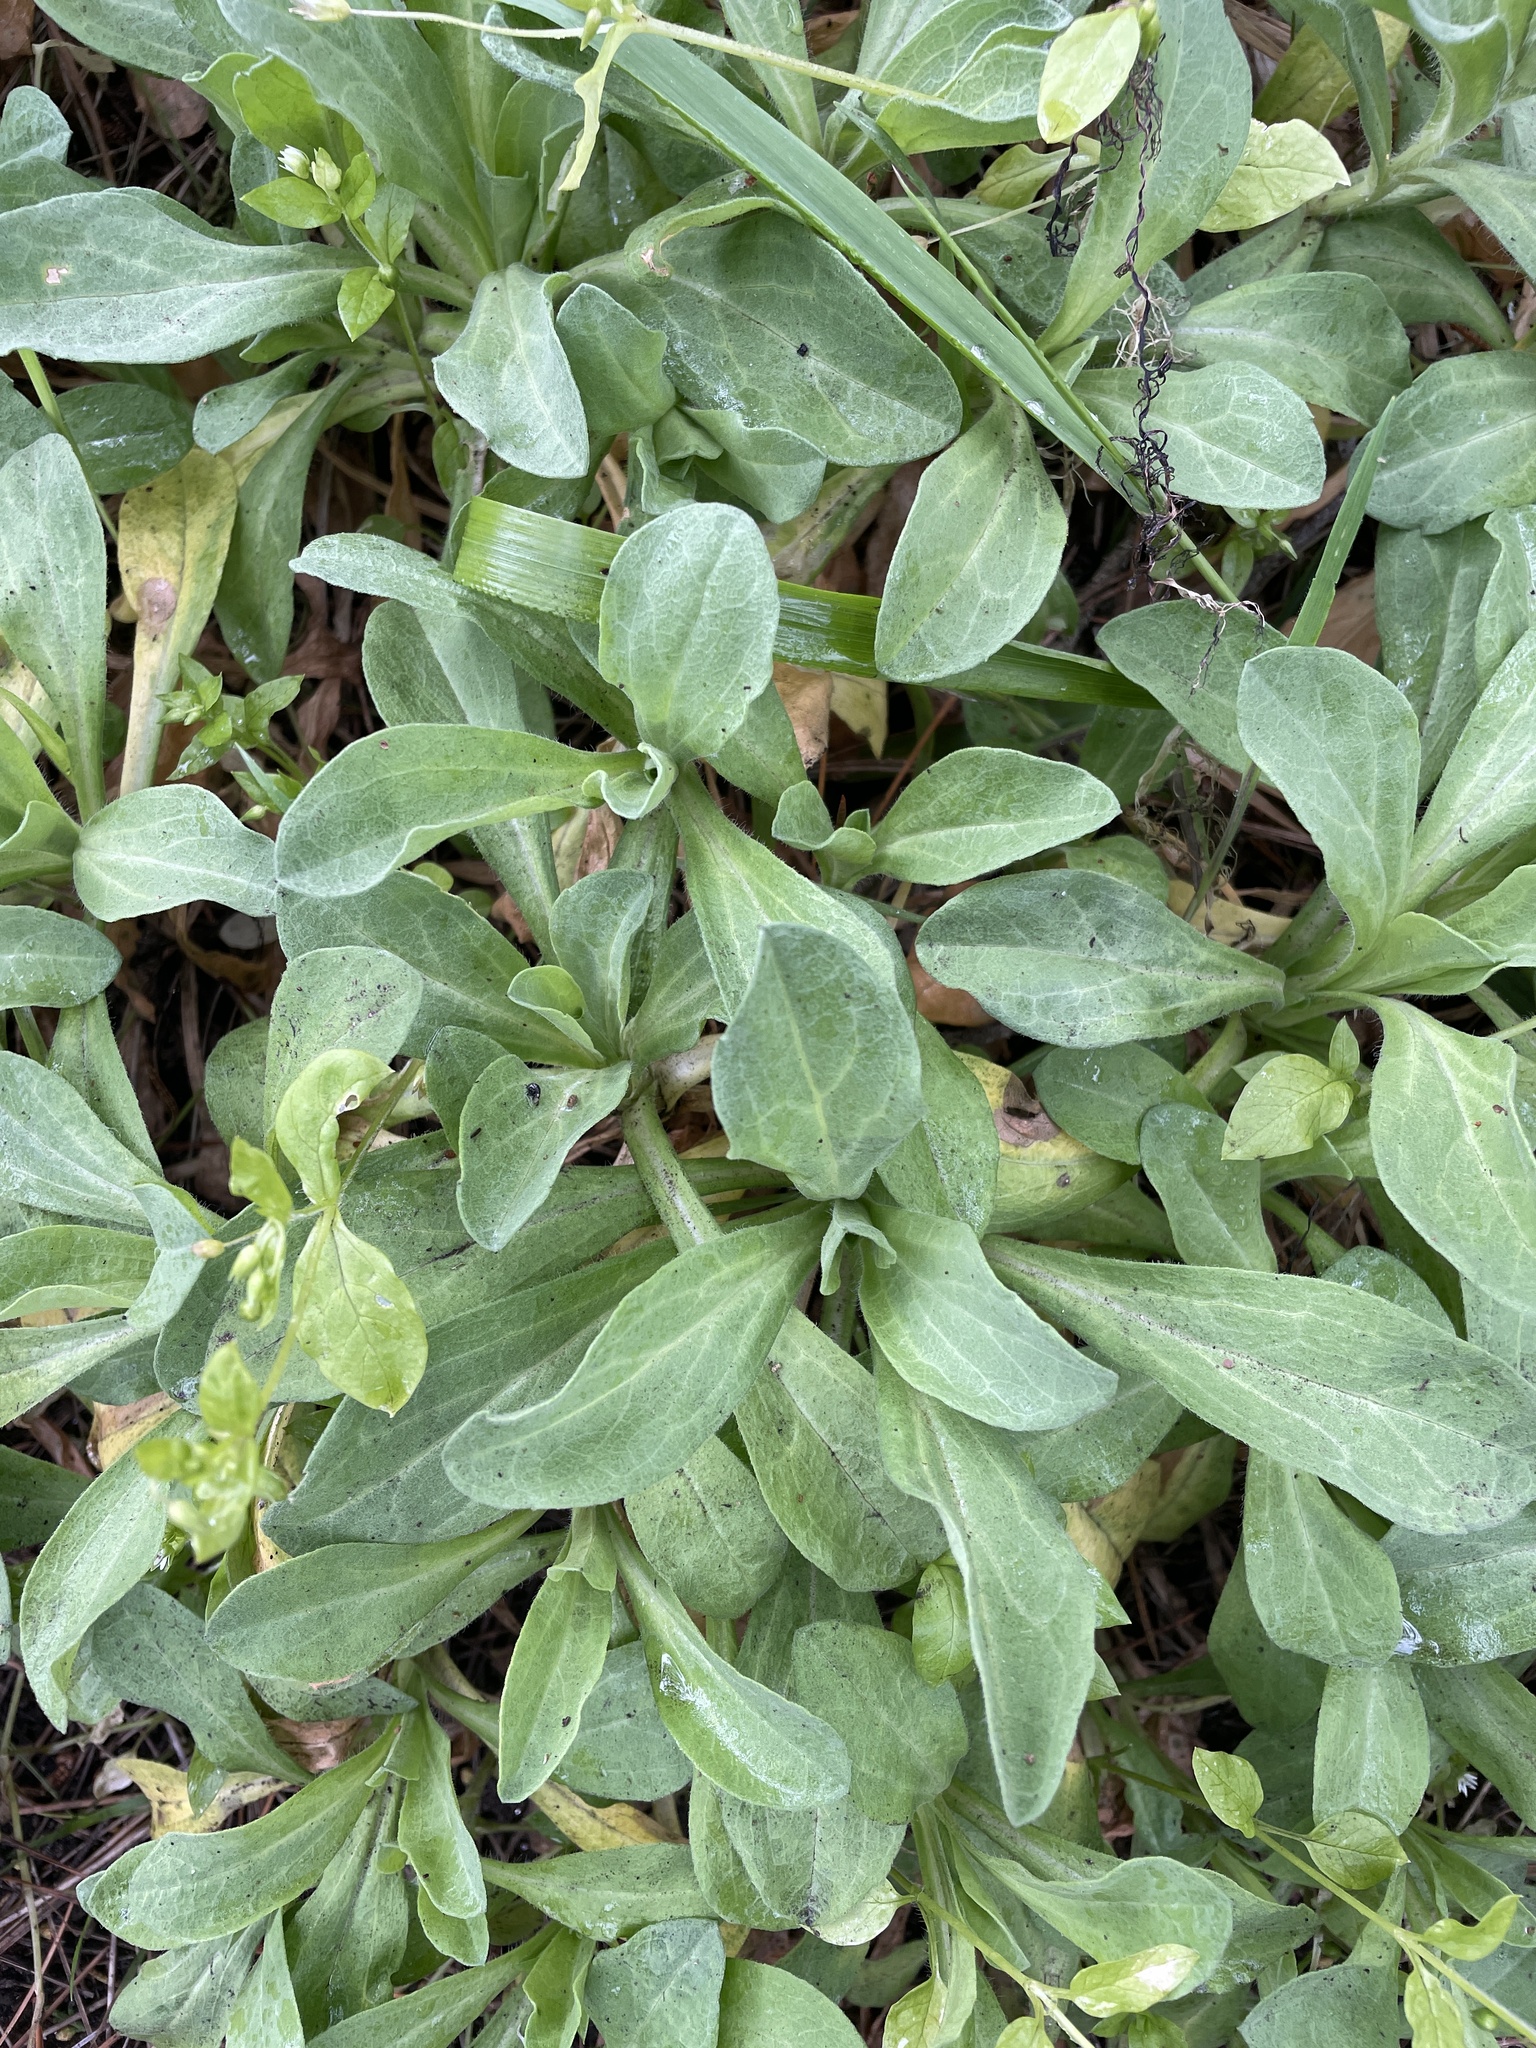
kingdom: Plantae
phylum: Tracheophyta
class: Magnoliopsida
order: Asterales
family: Asteraceae
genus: Erigeron
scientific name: Erigeron glaucus
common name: Seaside daisy
